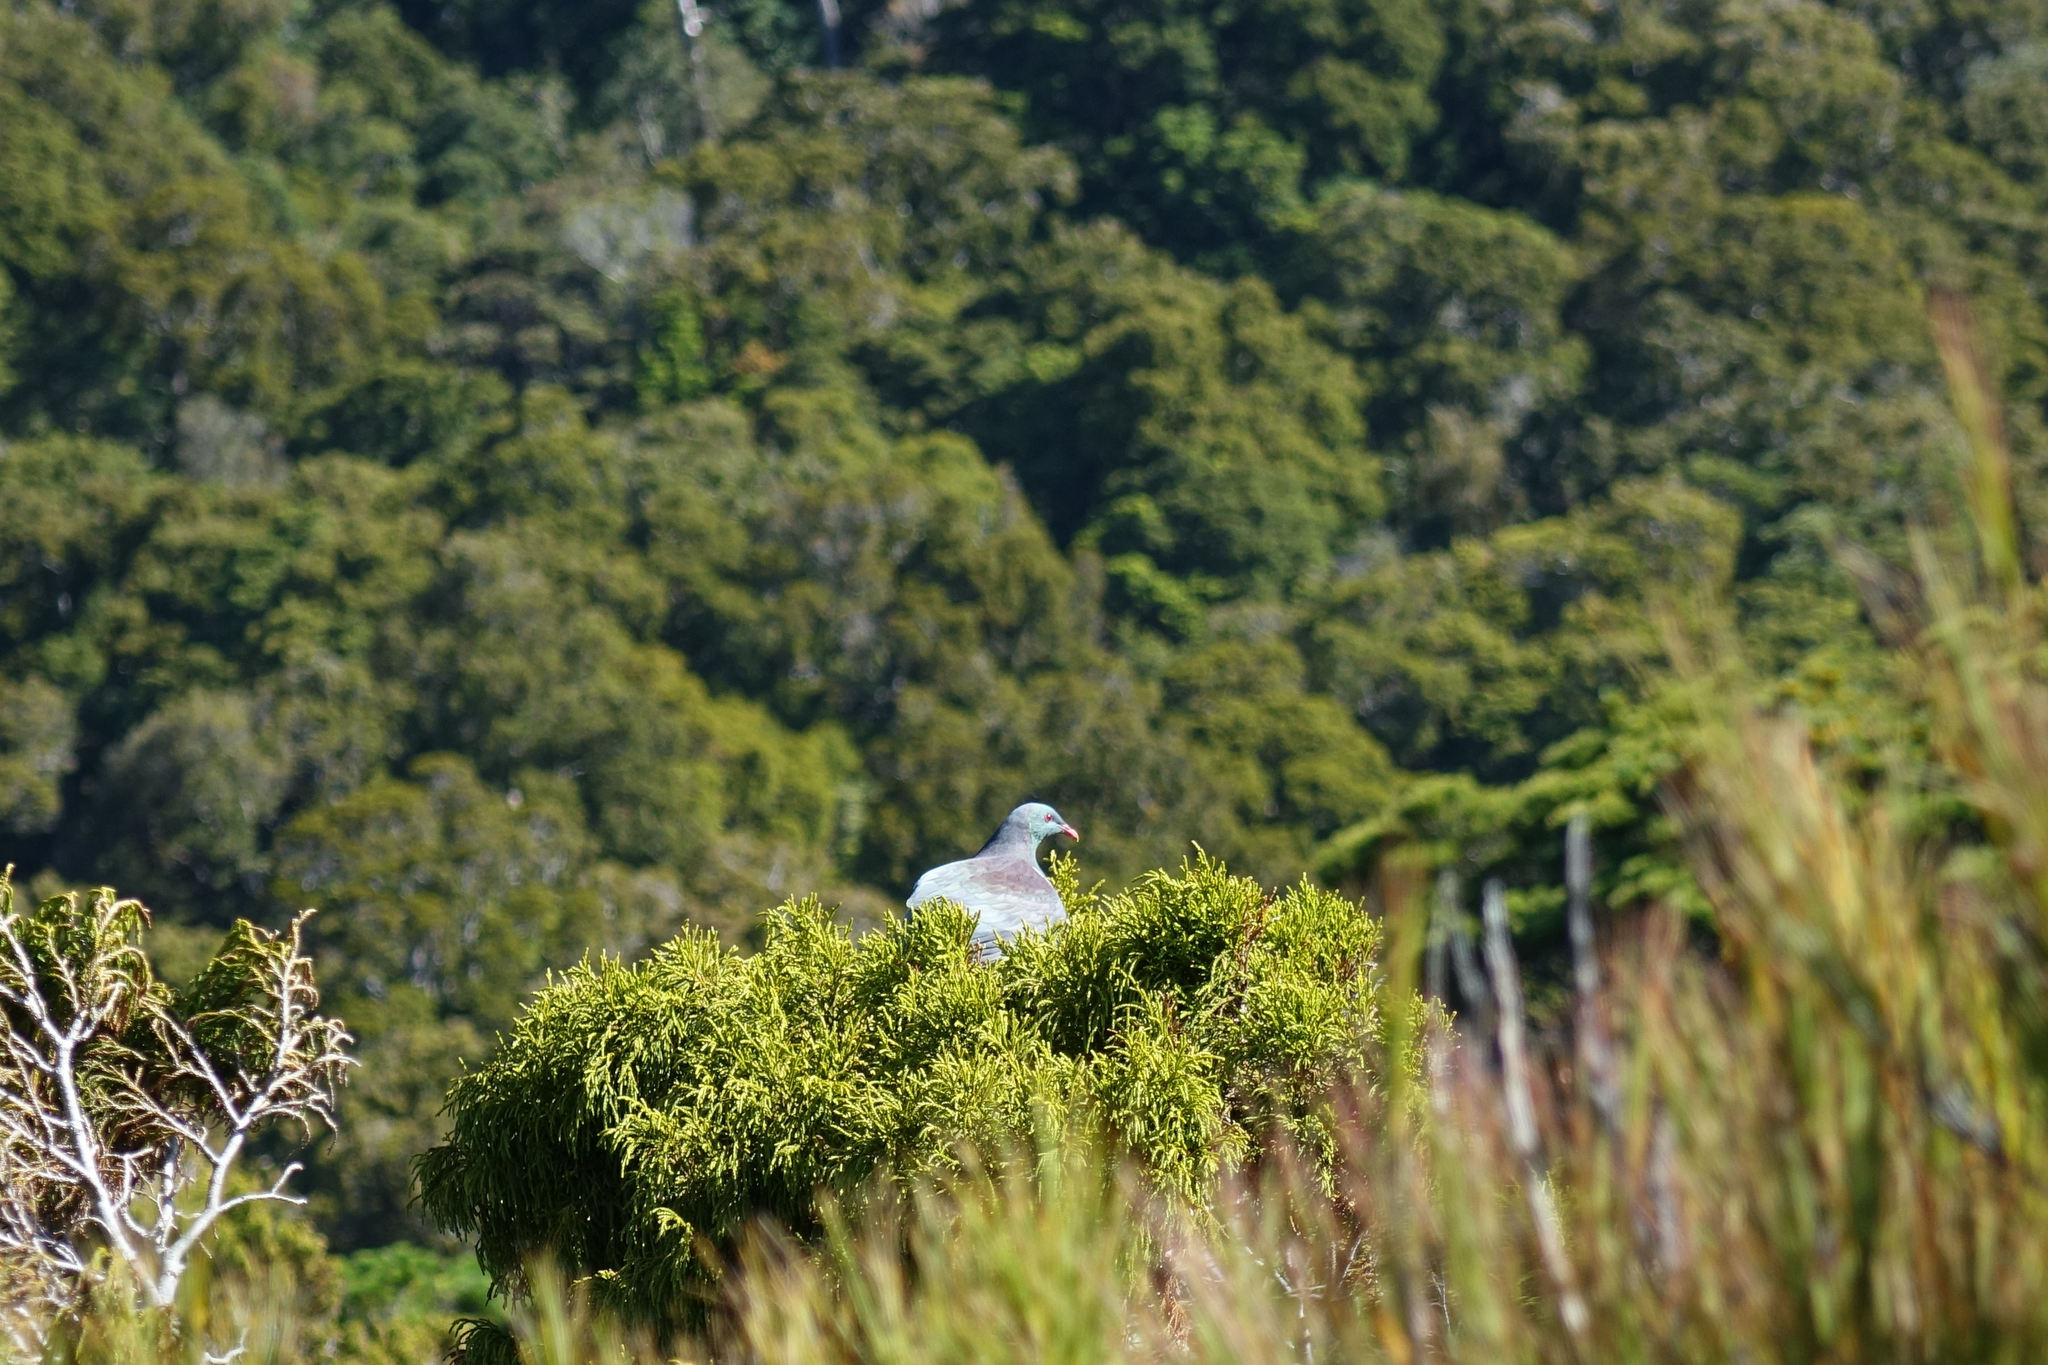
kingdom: Animalia
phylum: Chordata
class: Aves
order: Columbiformes
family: Columbidae
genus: Hemiphaga
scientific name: Hemiphaga novaeseelandiae
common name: New zealand pigeon
